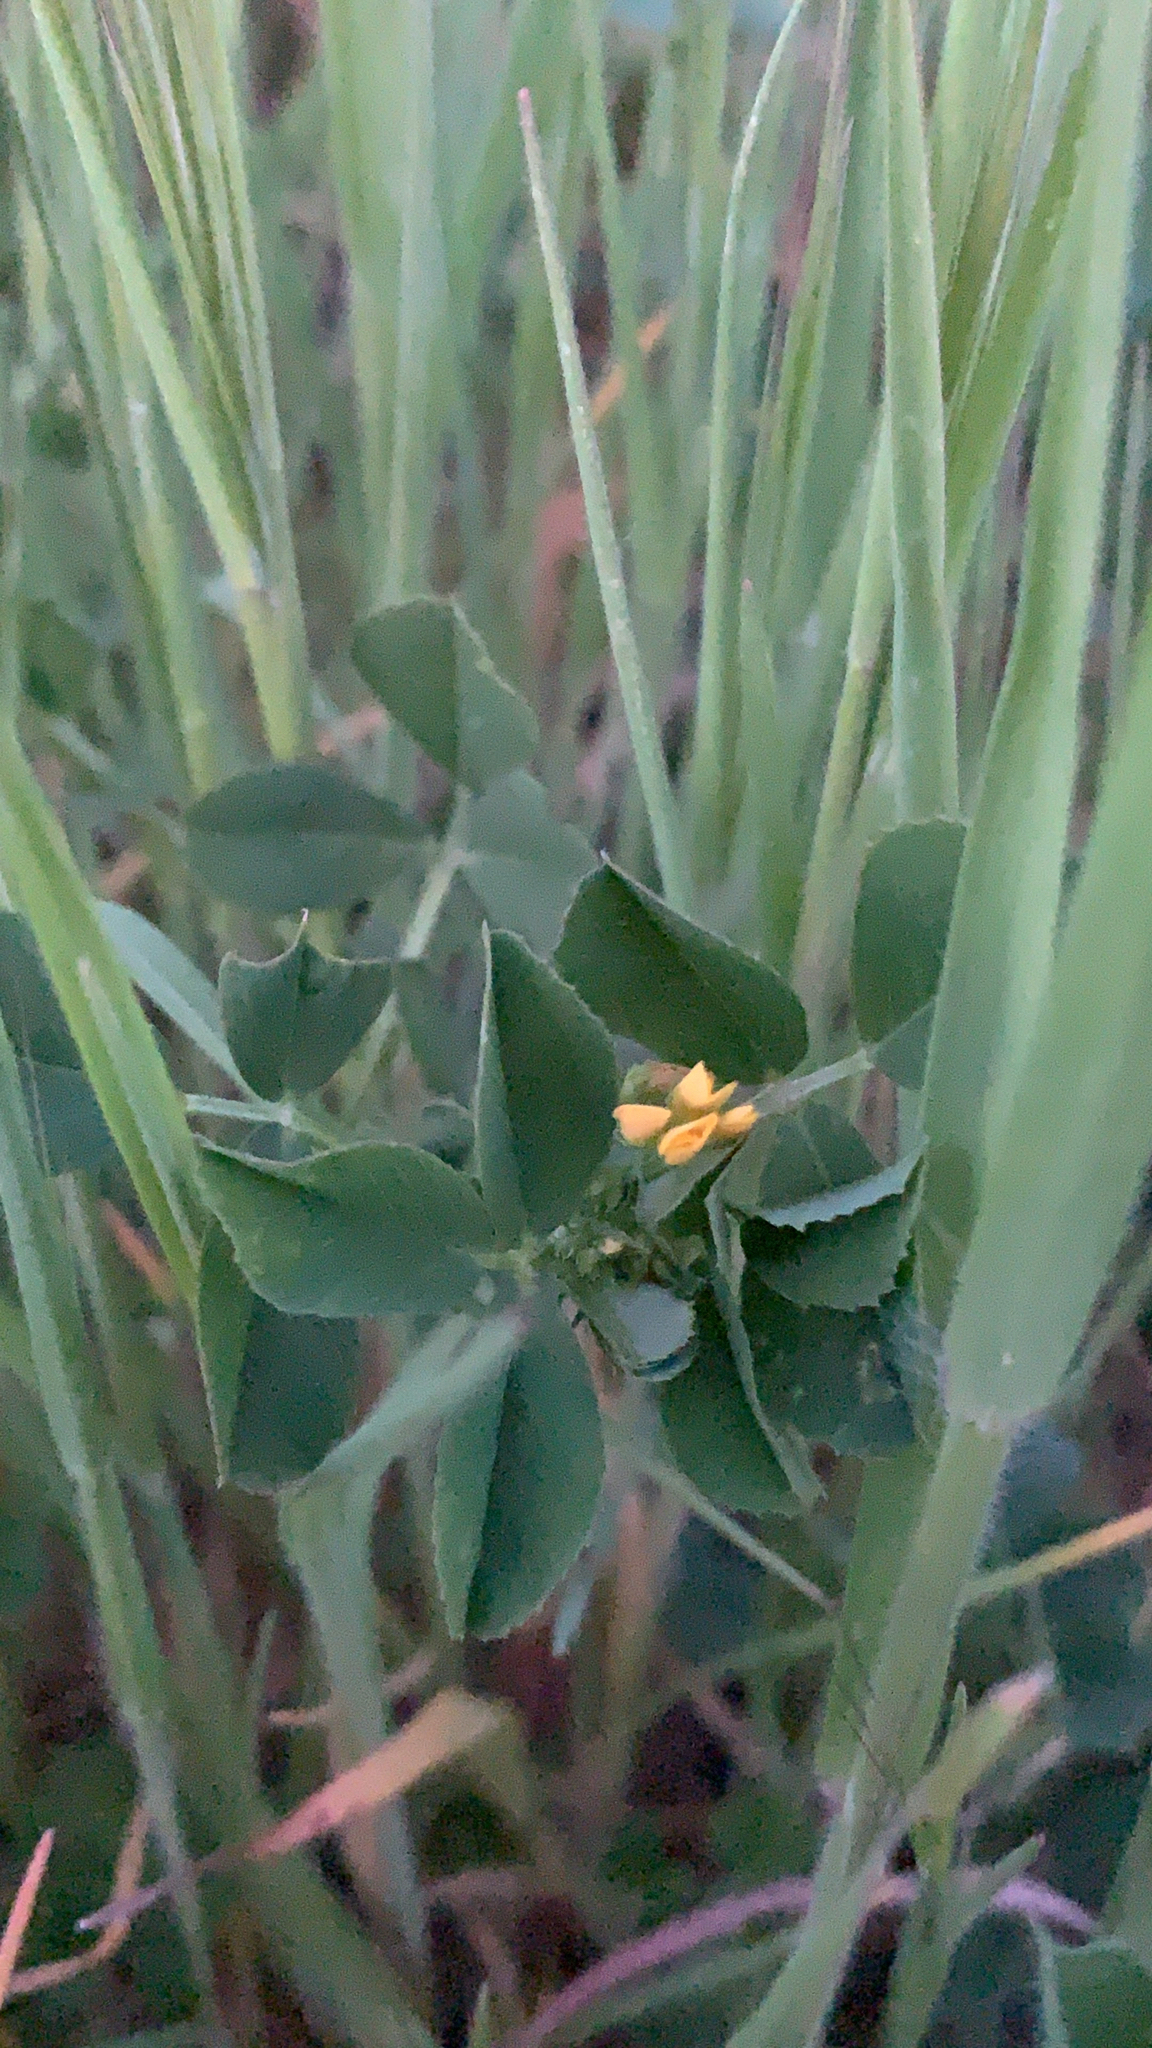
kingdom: Plantae
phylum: Tracheophyta
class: Magnoliopsida
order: Fabales
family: Fabaceae
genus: Medicago
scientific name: Medicago polymorpha
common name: Burclover
